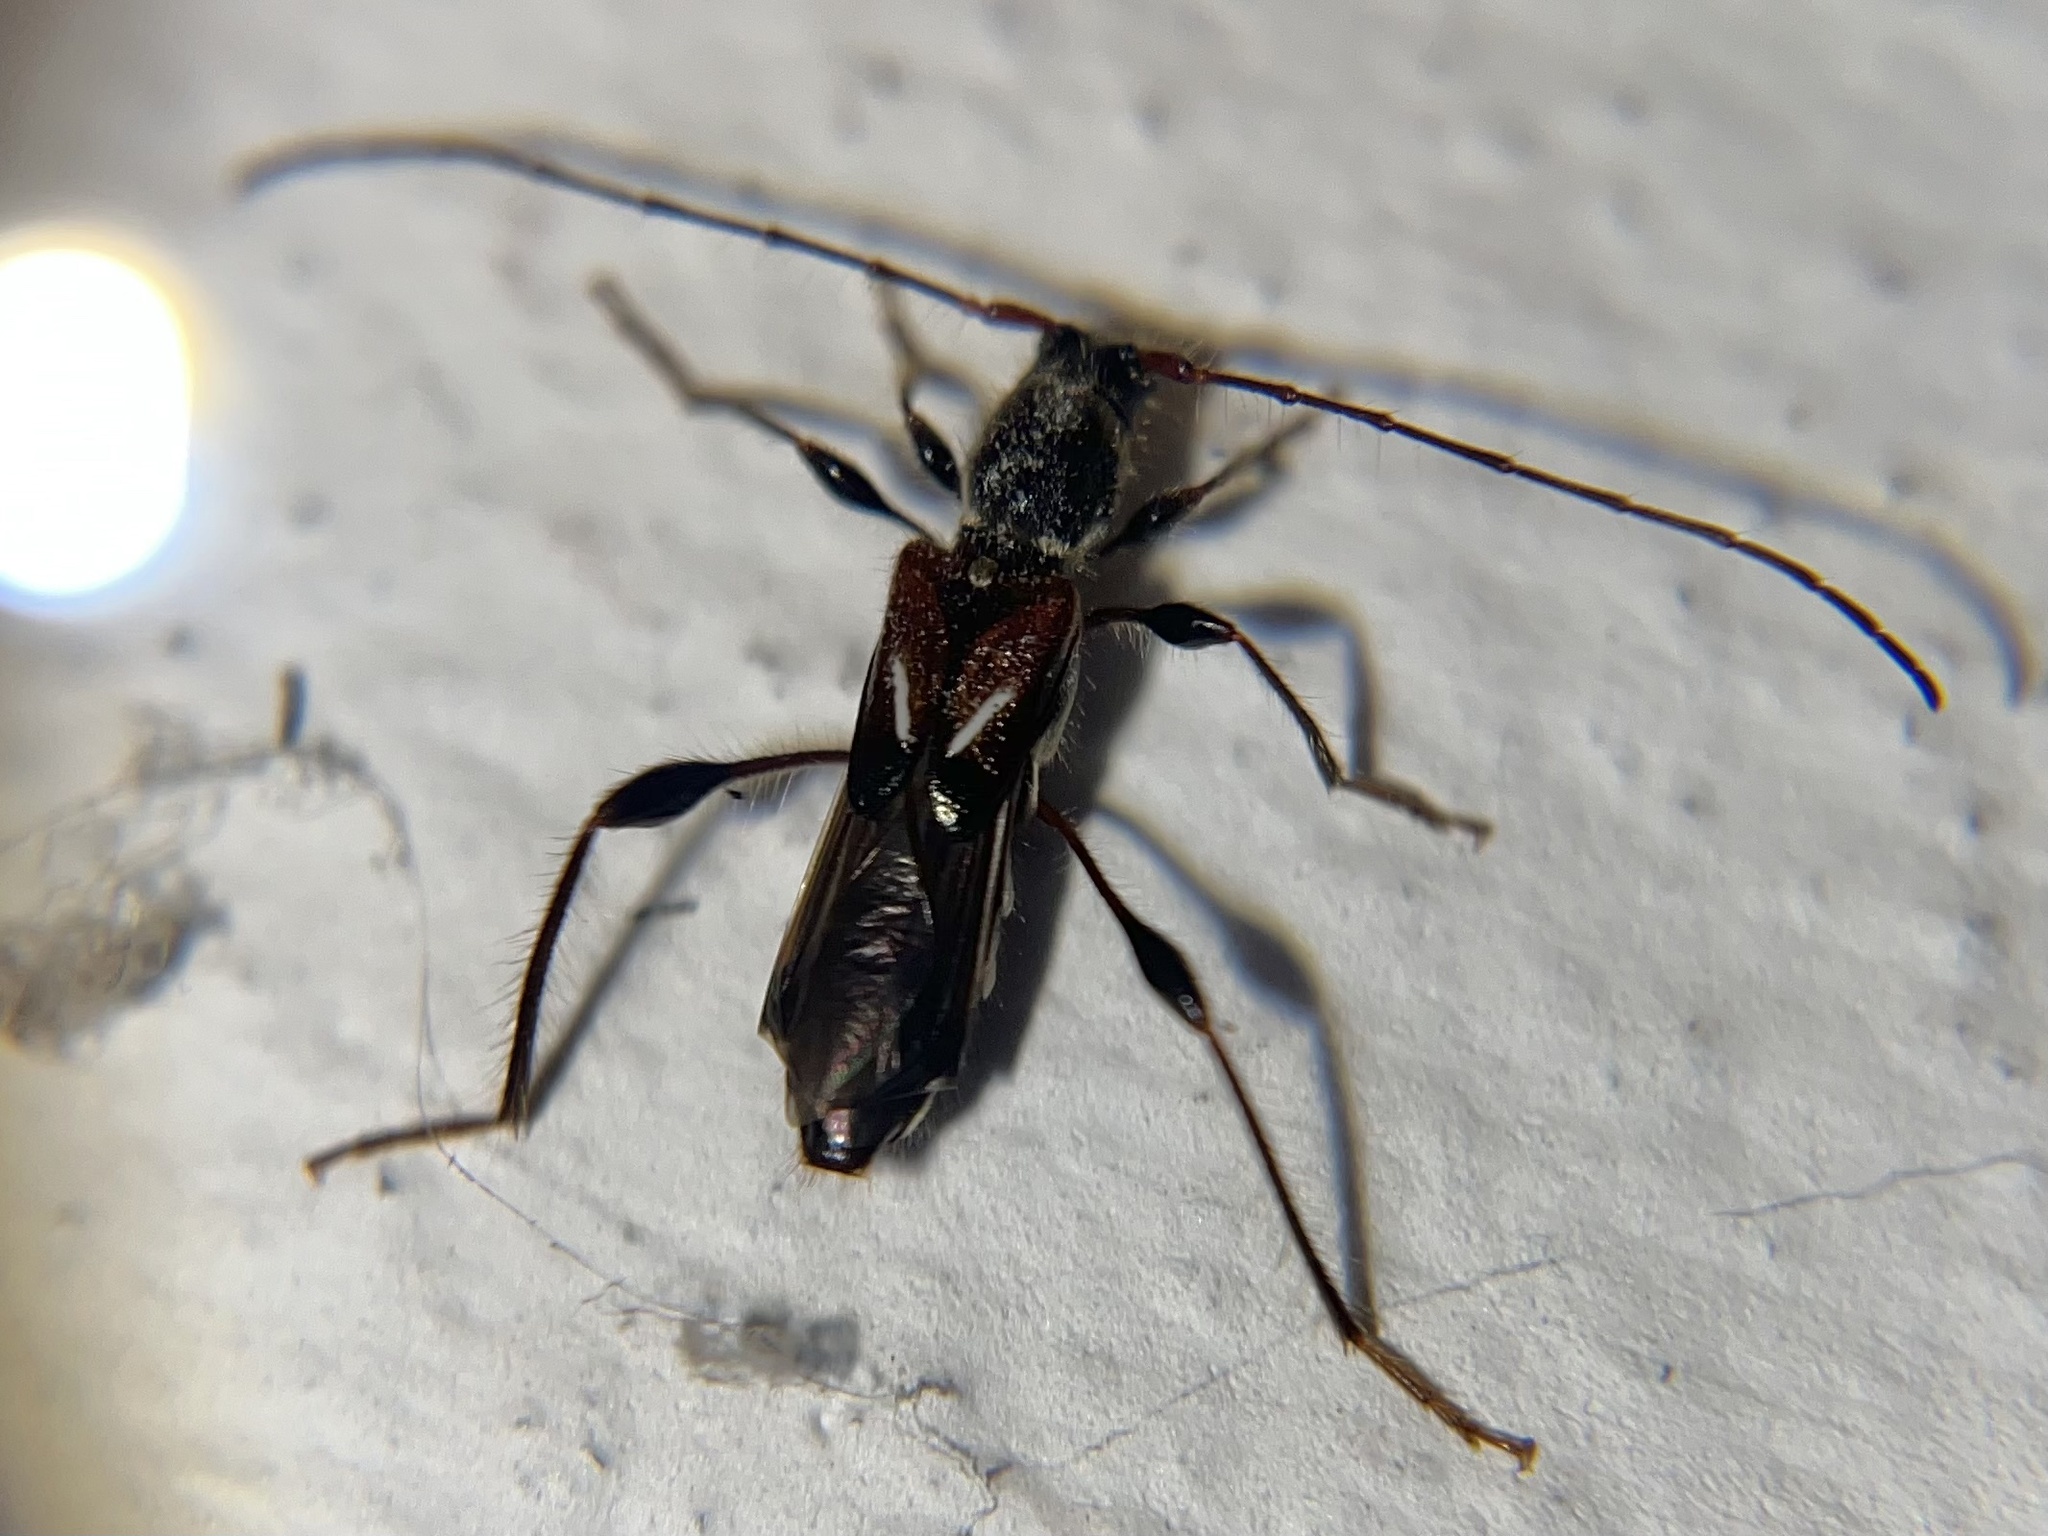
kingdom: Animalia
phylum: Arthropoda
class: Insecta
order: Coleoptera
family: Cerambycidae
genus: Molorchus
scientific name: Molorchus minor
